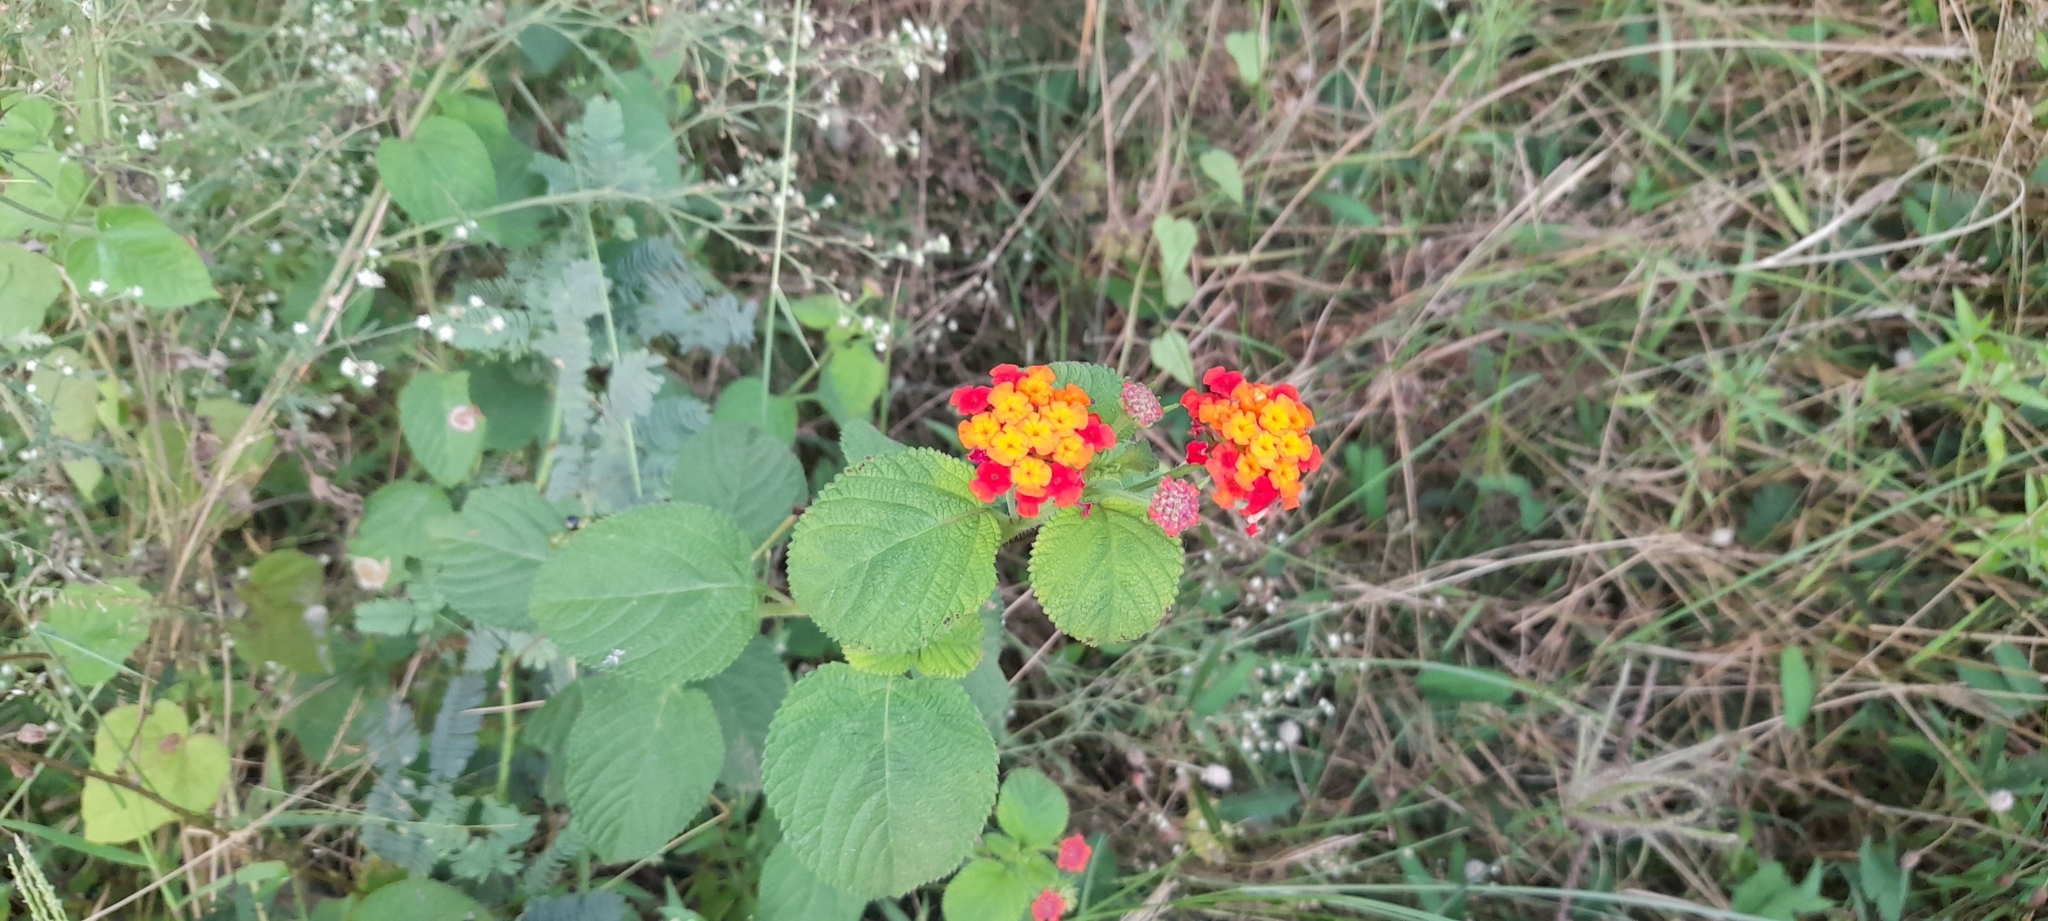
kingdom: Plantae
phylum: Tracheophyta
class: Magnoliopsida
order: Lamiales
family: Verbenaceae
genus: Lantana
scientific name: Lantana camara
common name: Lantana
